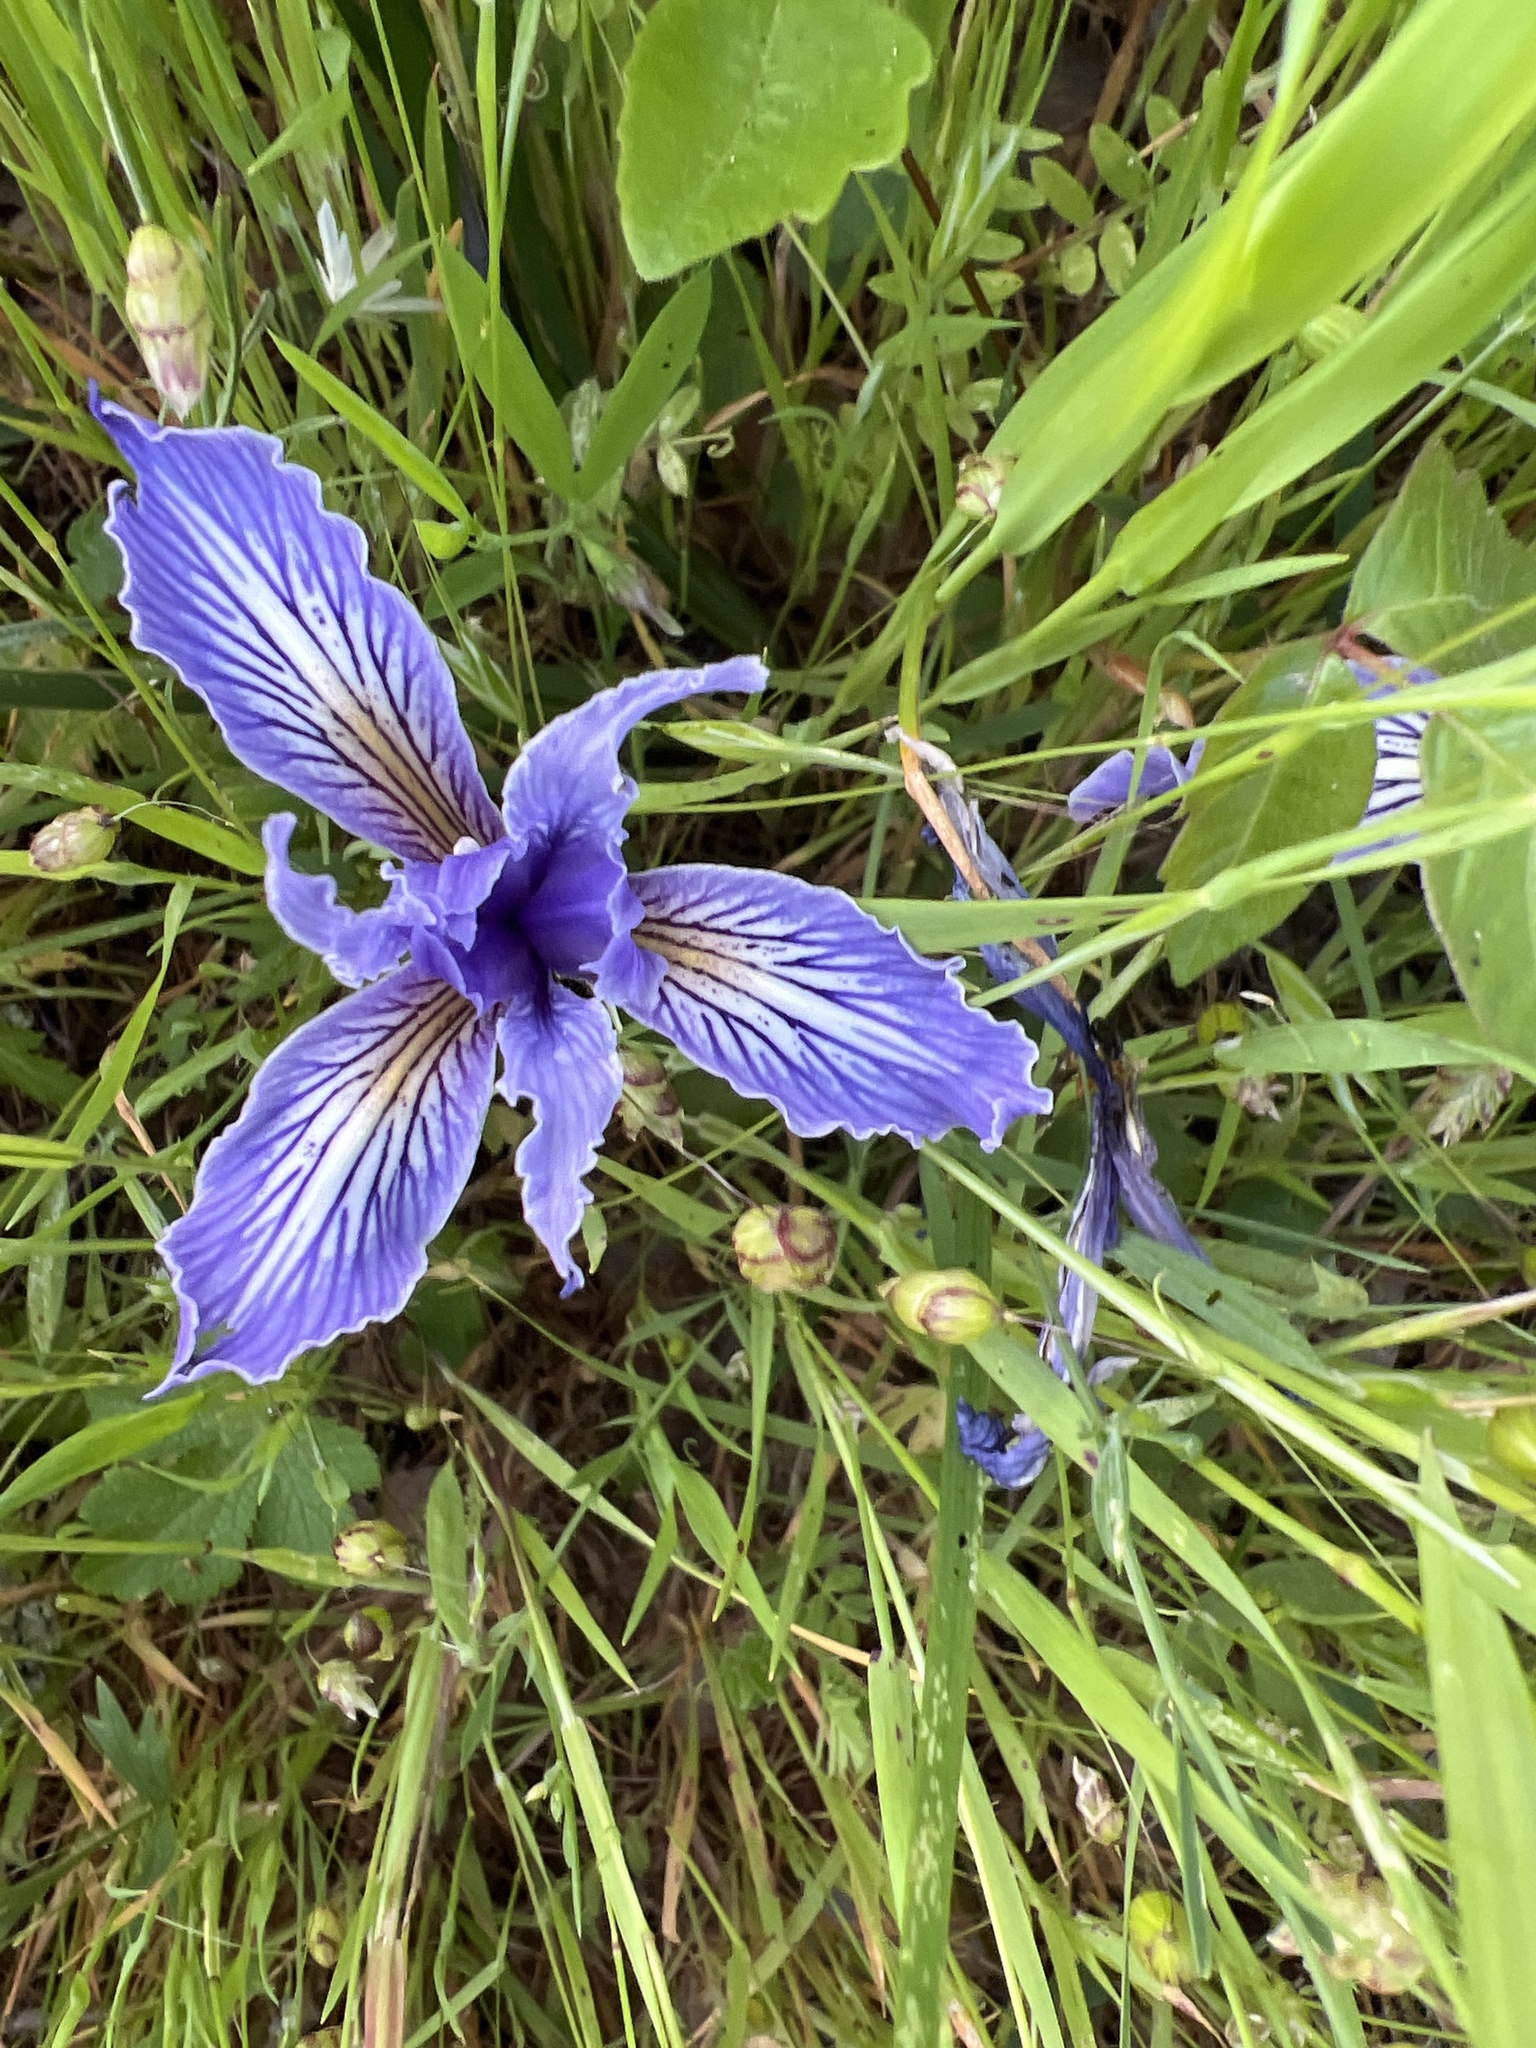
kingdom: Plantae
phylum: Tracheophyta
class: Liliopsida
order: Asparagales
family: Iridaceae
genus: Iris
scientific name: Iris macrosiphon
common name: Ground iris
